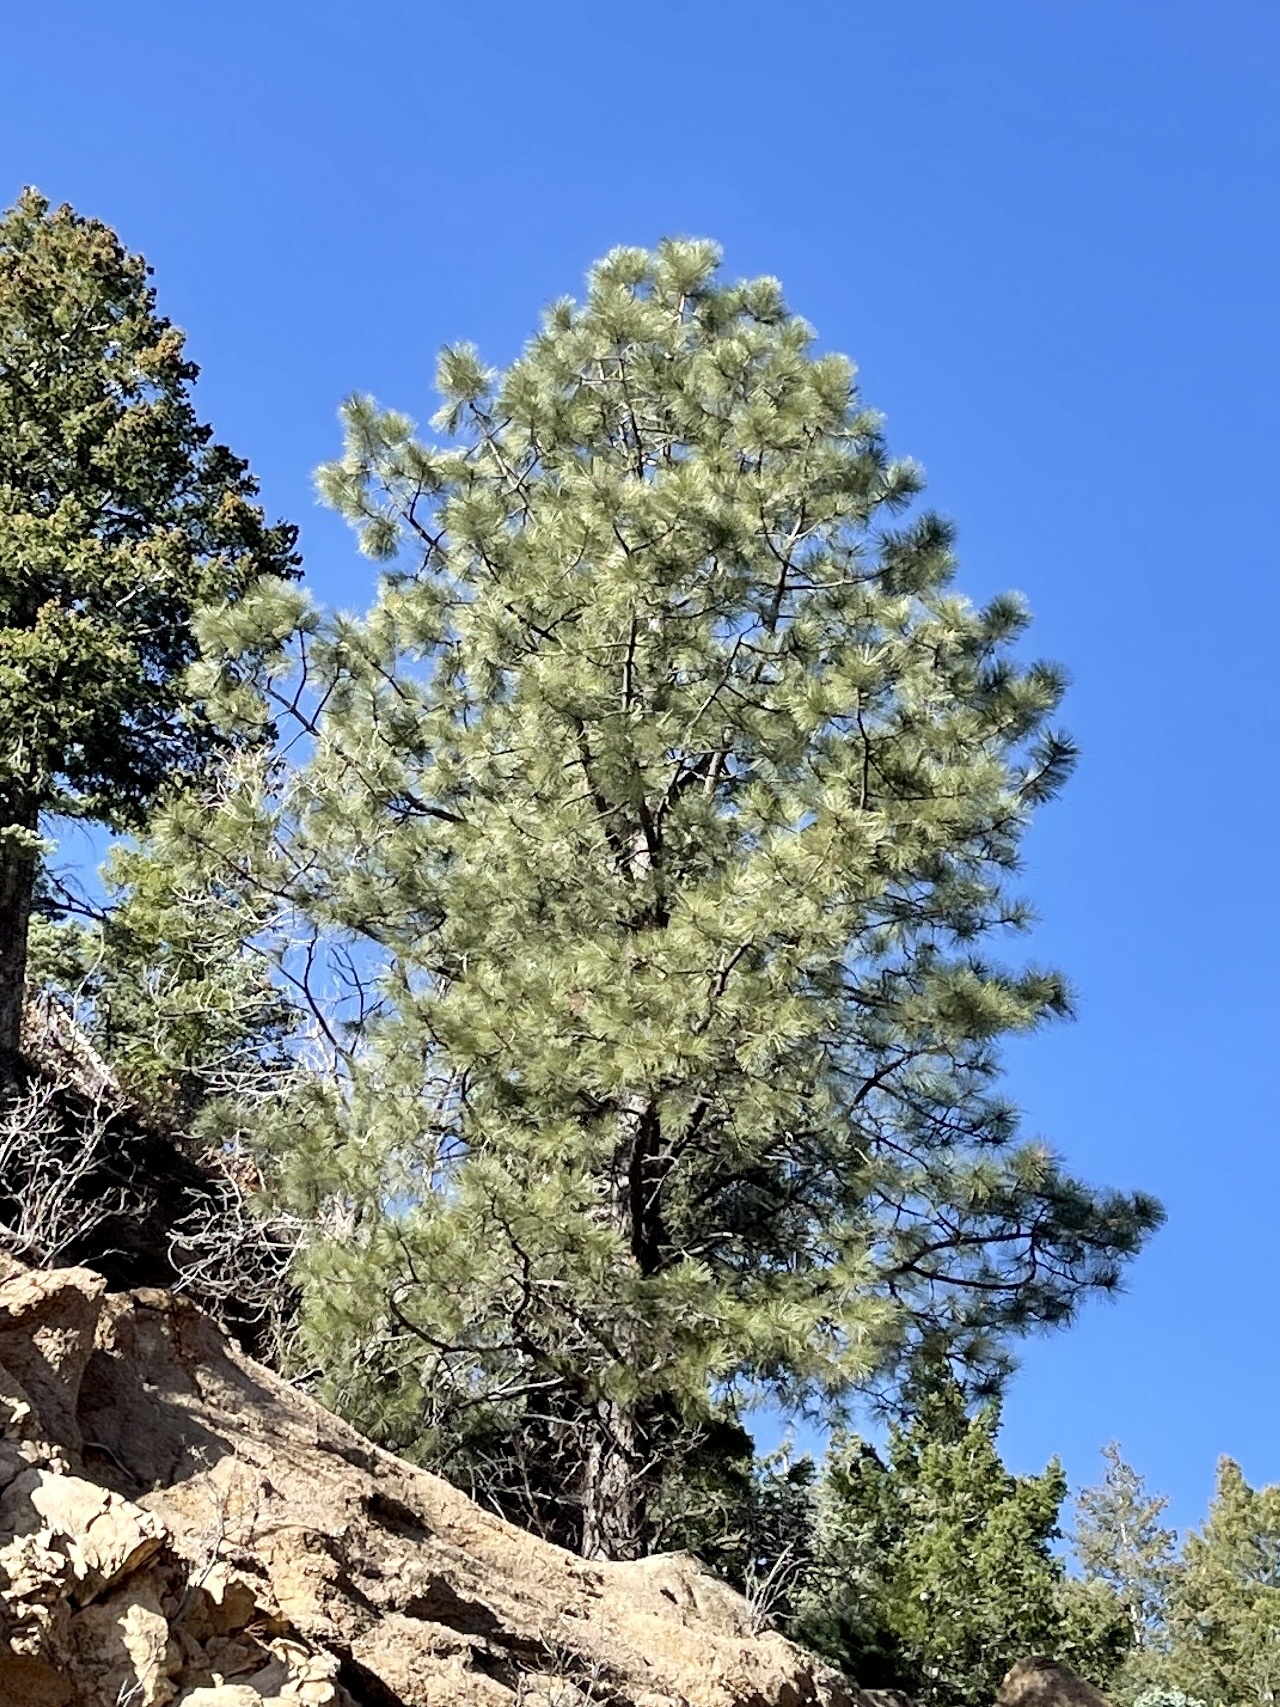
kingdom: Plantae
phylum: Tracheophyta
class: Pinopsida
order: Pinales
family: Pinaceae
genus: Pinus
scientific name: Pinus ponderosa
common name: Western yellow-pine
